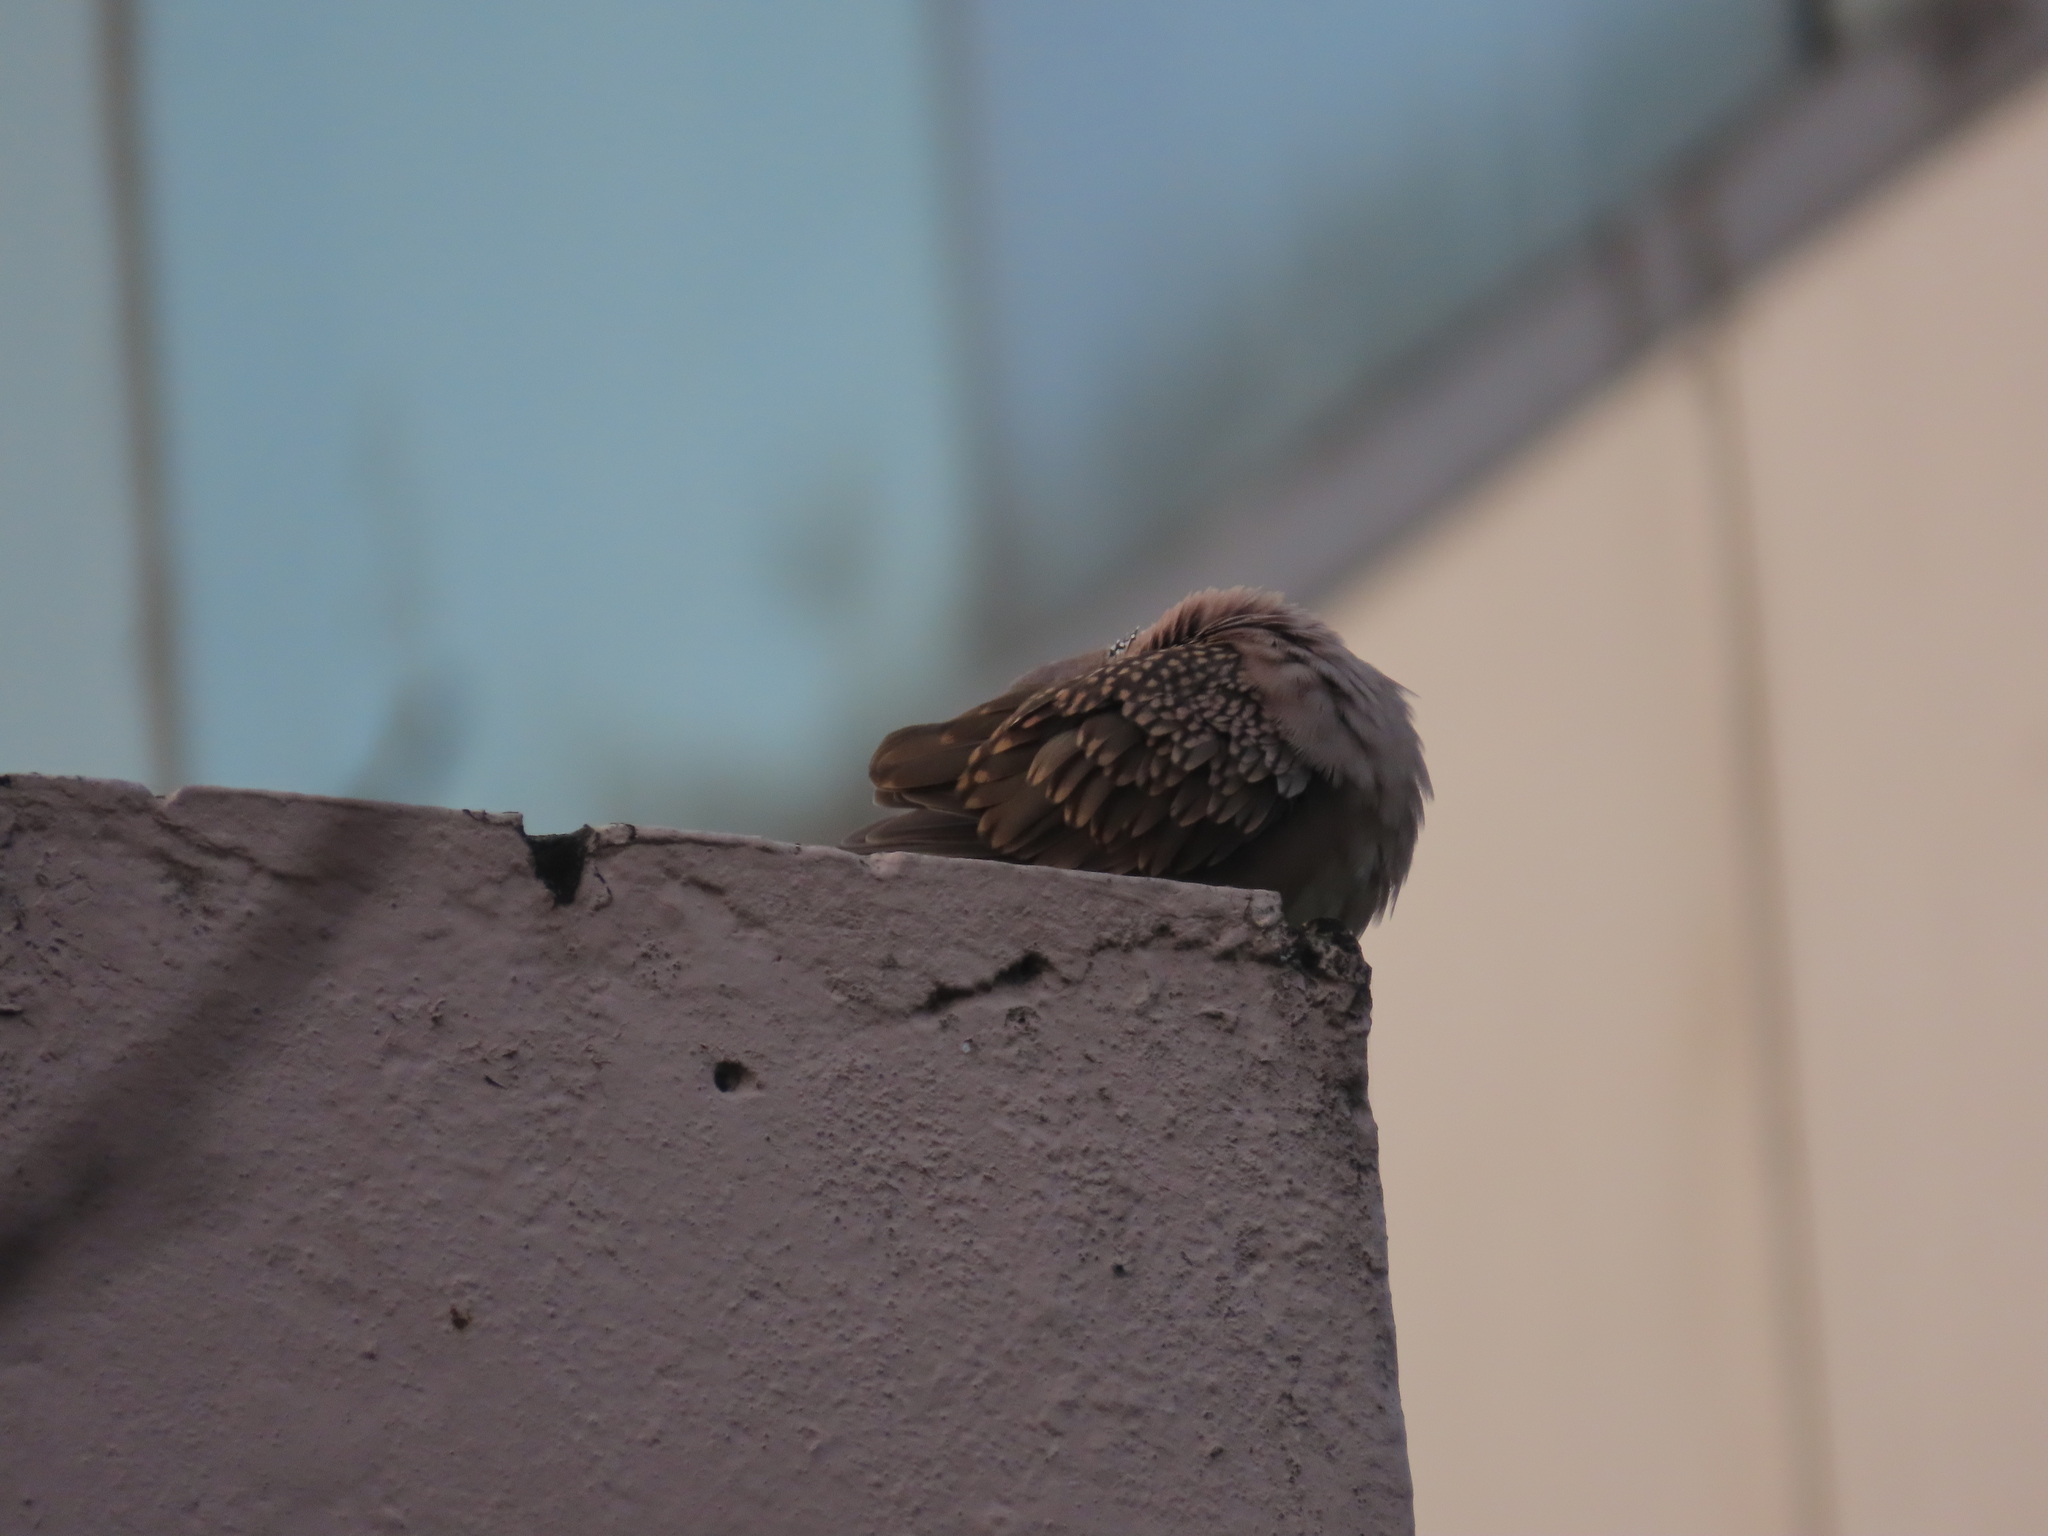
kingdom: Animalia
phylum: Chordata
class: Aves
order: Columbiformes
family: Columbidae
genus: Spilopelia
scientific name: Spilopelia chinensis
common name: Spotted dove
